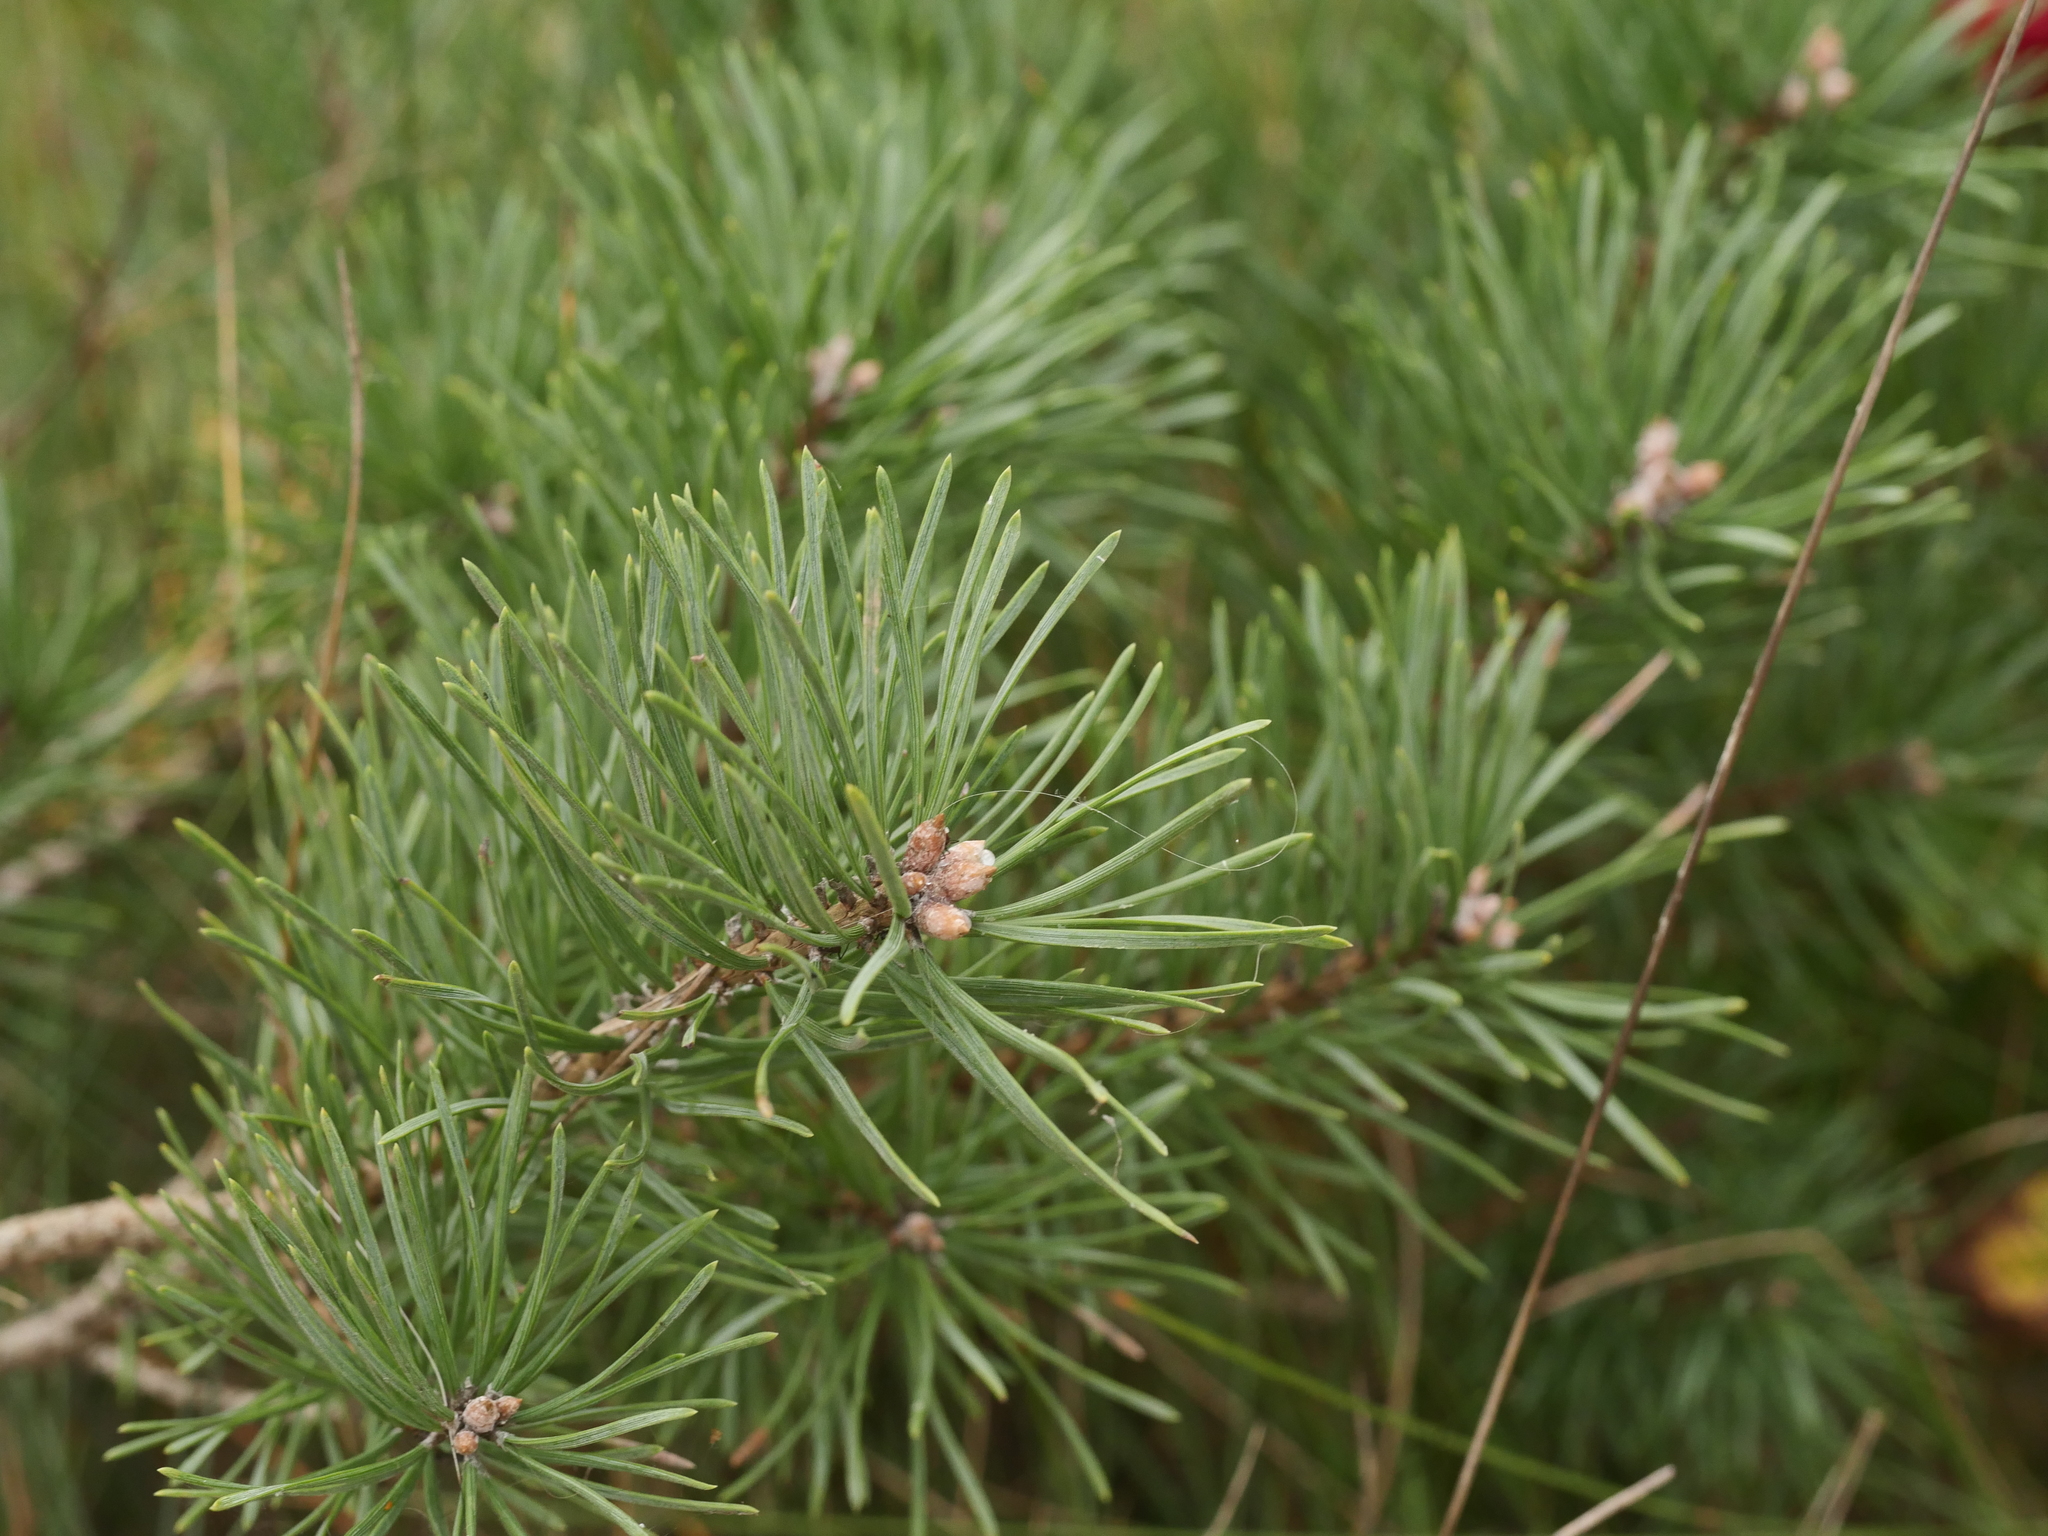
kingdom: Plantae
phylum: Tracheophyta
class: Pinopsida
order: Pinales
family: Pinaceae
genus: Pinus
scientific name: Pinus sylvestris
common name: Scots pine
